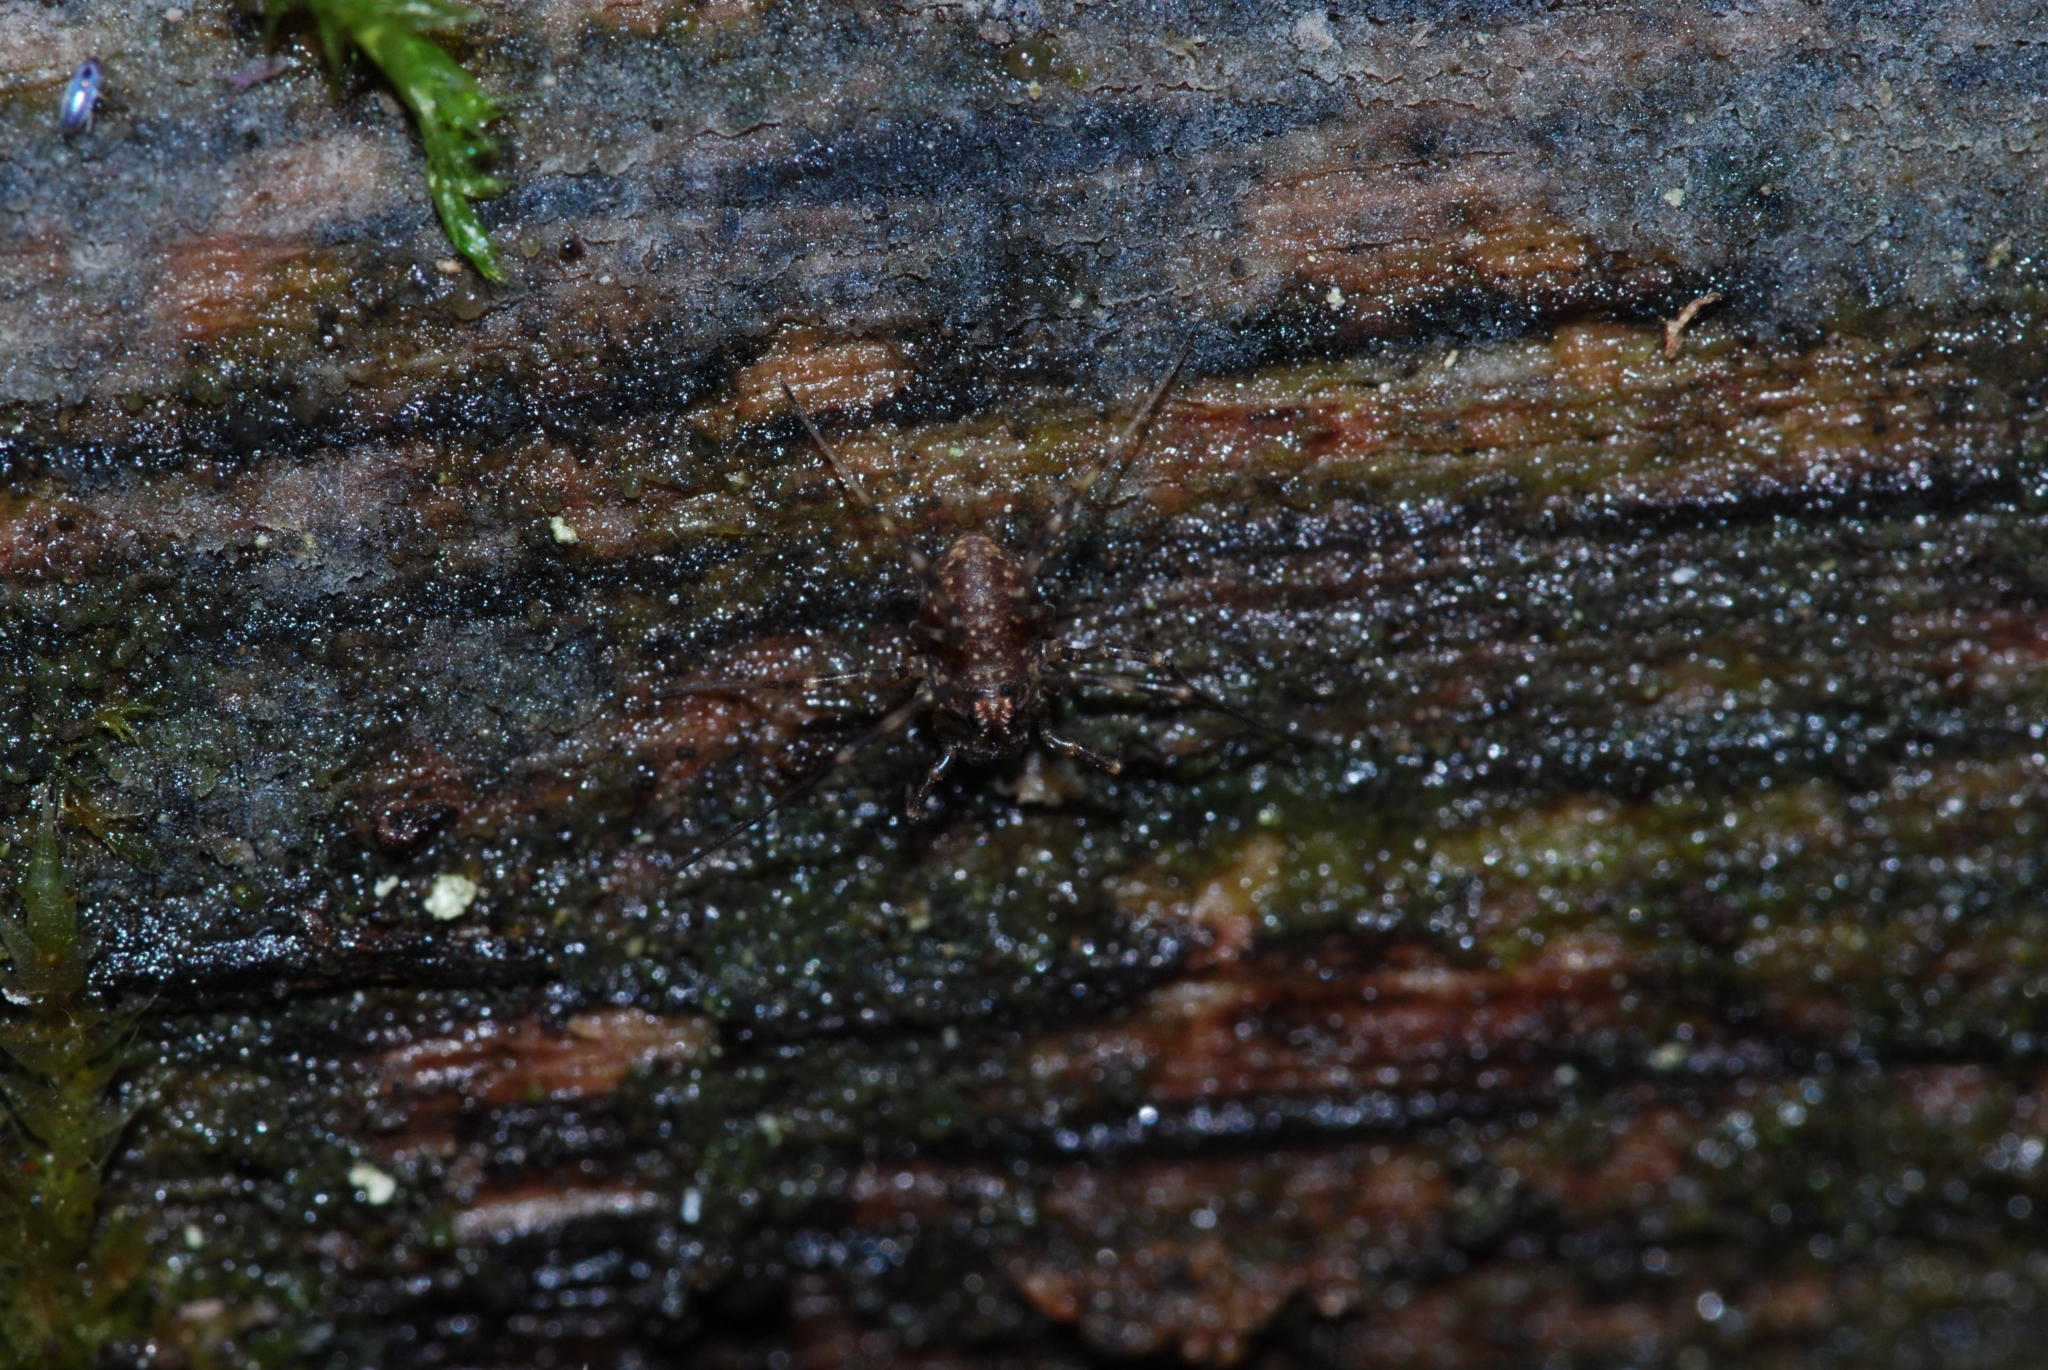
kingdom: Animalia
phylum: Arthropoda
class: Arachnida
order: Opiliones
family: Phalangiidae
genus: Rilaena
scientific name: Rilaena triangularis
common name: Spring harvestman
